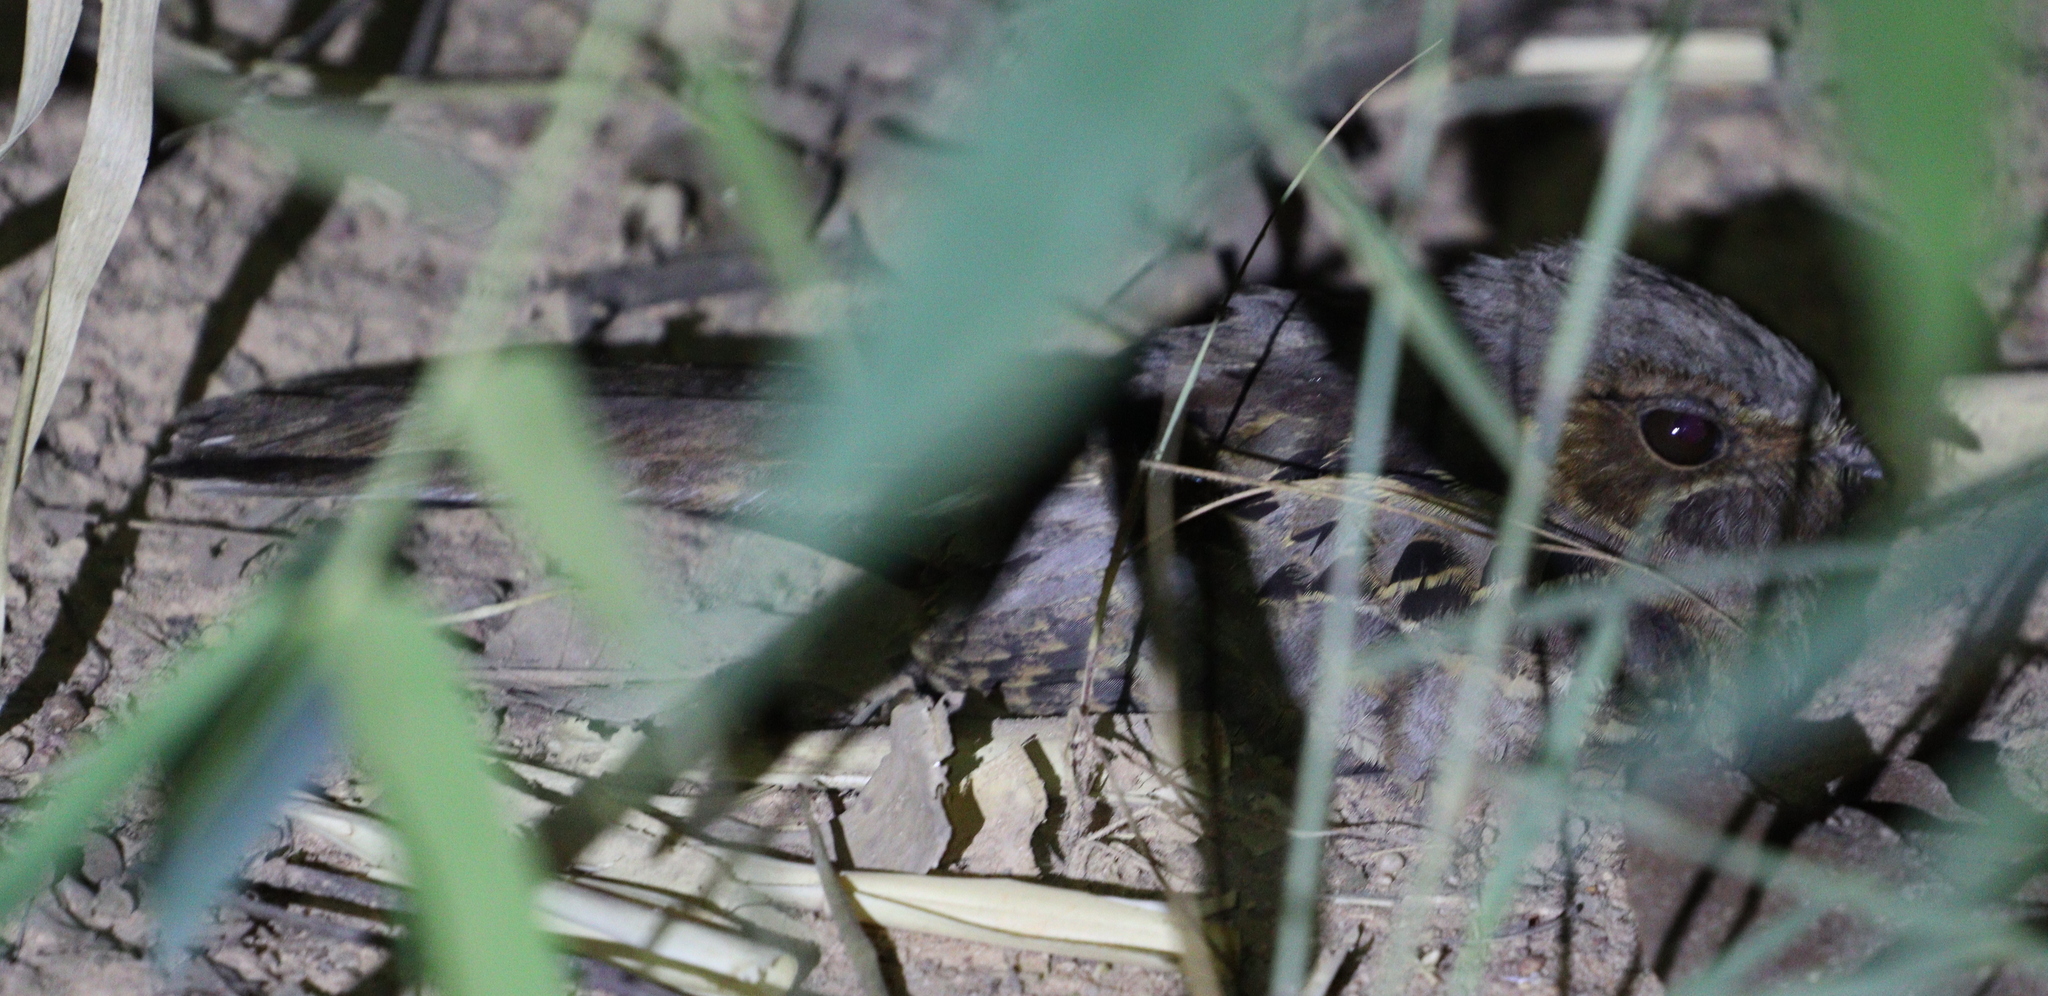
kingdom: Animalia
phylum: Chordata
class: Aves
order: Caprimulgiformes
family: Caprimulgidae
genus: Nyctidromus
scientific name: Nyctidromus albicollis
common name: Pauraque
